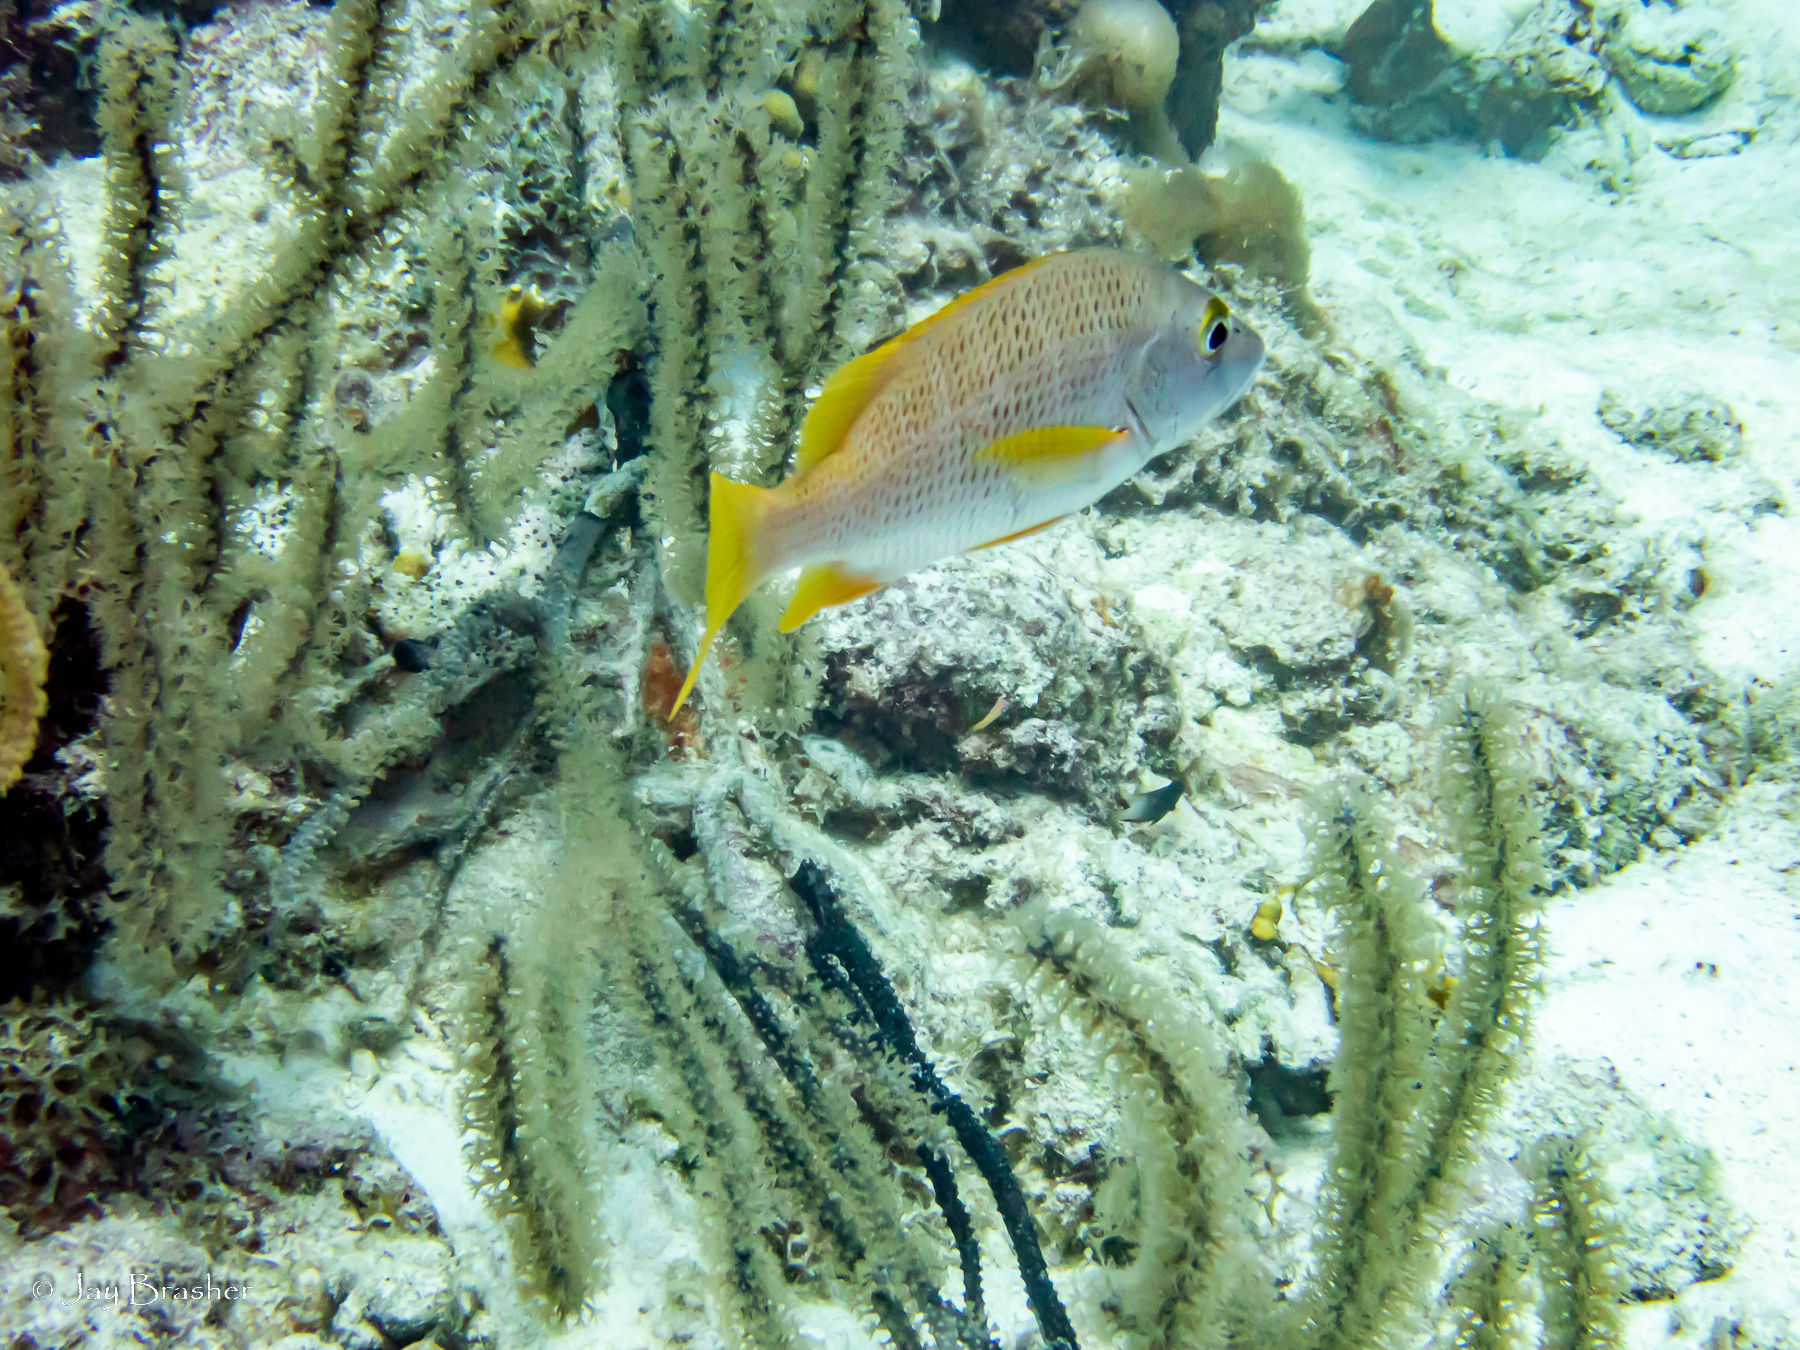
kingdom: Animalia
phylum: Chordata
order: Perciformes
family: Lutjanidae
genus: Lutjanus
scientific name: Lutjanus apodus
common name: Schoolmaster
